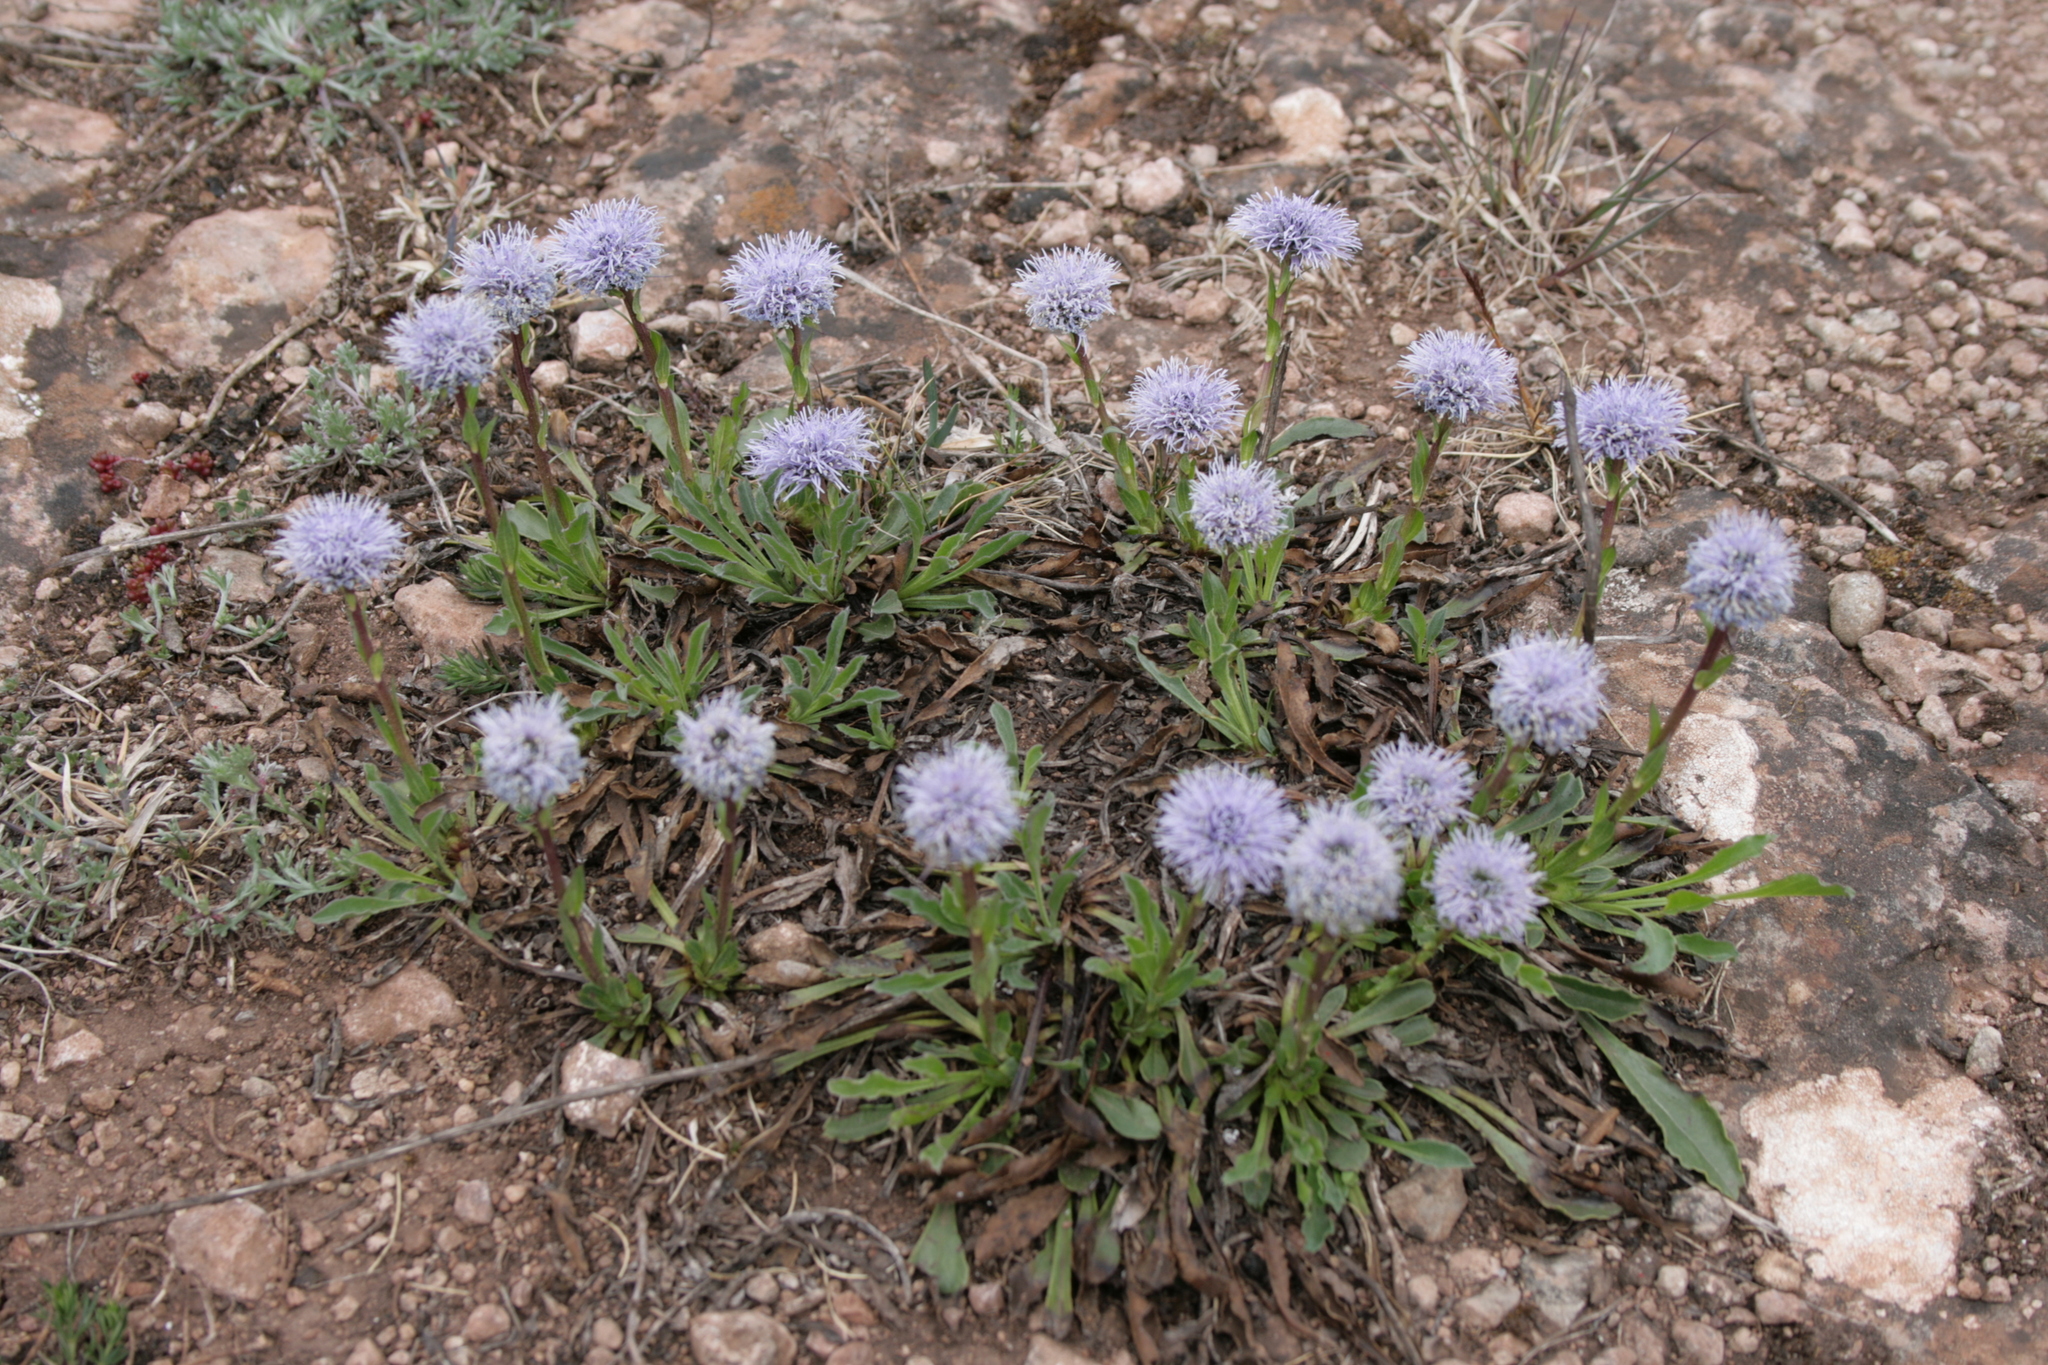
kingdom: Plantae
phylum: Tracheophyta
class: Magnoliopsida
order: Lamiales
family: Plantaginaceae
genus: Globularia
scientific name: Globularia vulgaris
